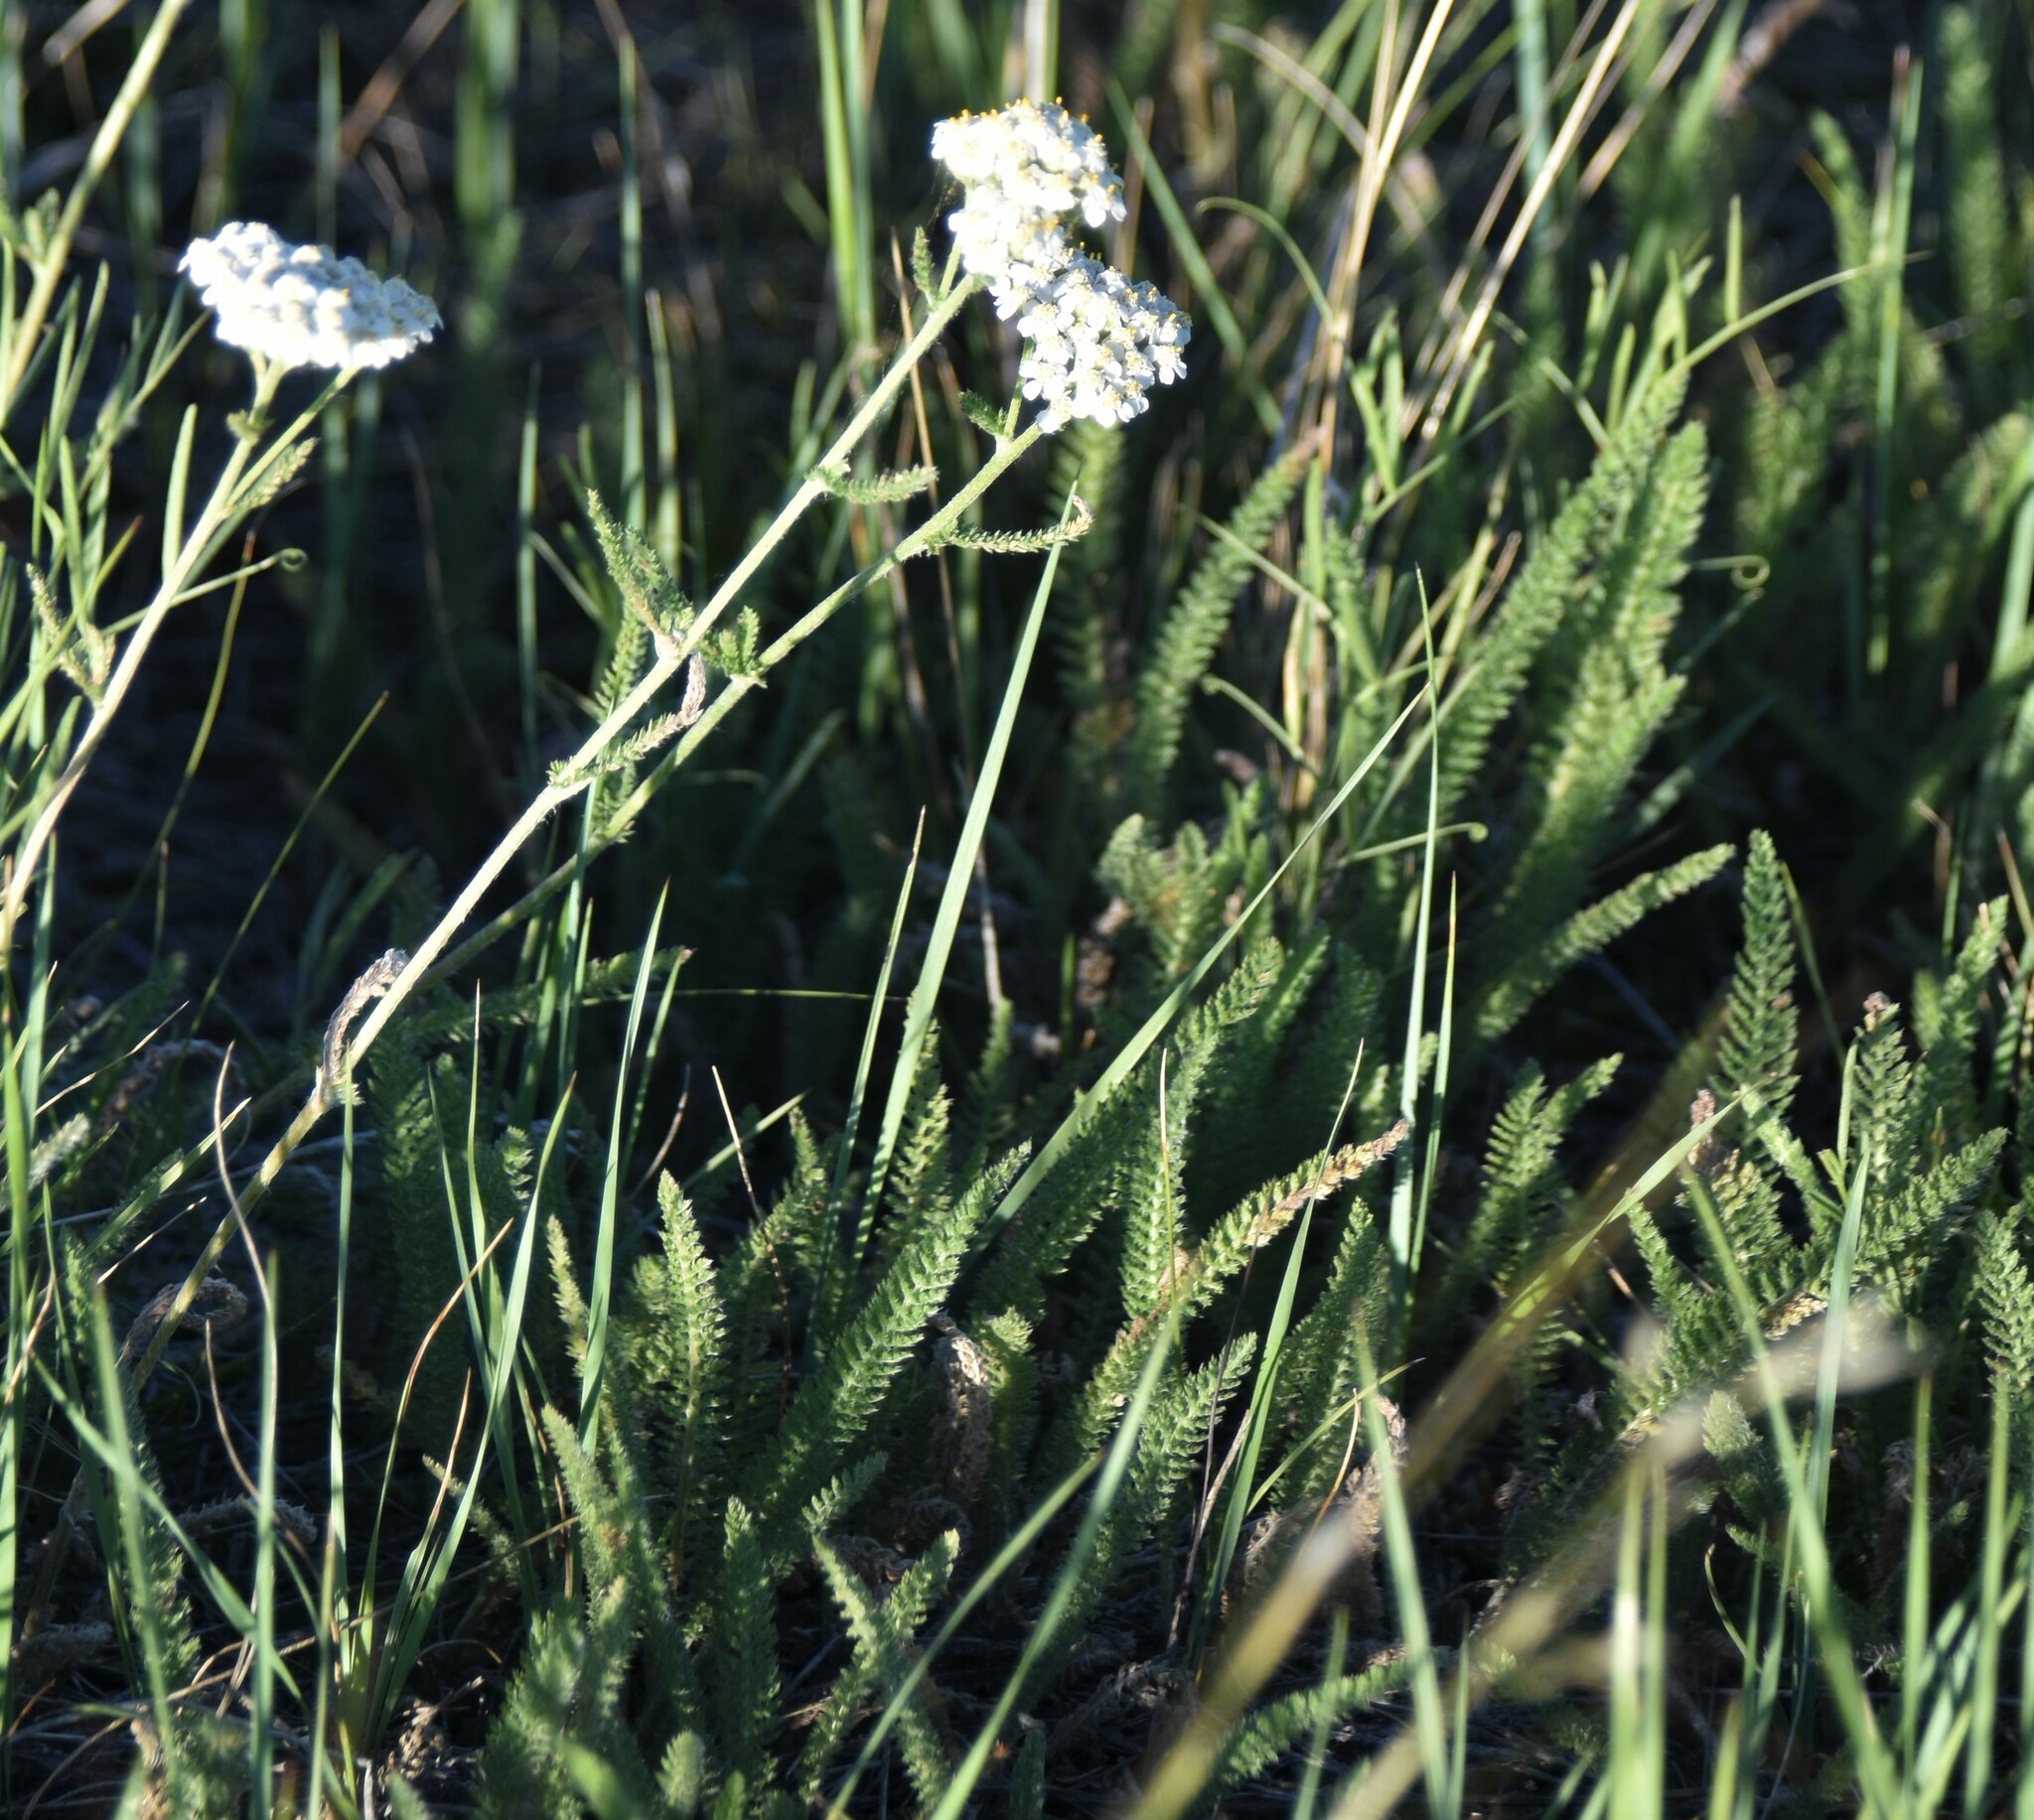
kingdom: Plantae
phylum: Tracheophyta
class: Magnoliopsida
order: Asterales
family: Asteraceae
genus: Achillea
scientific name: Achillea millefolium
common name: Yarrow
